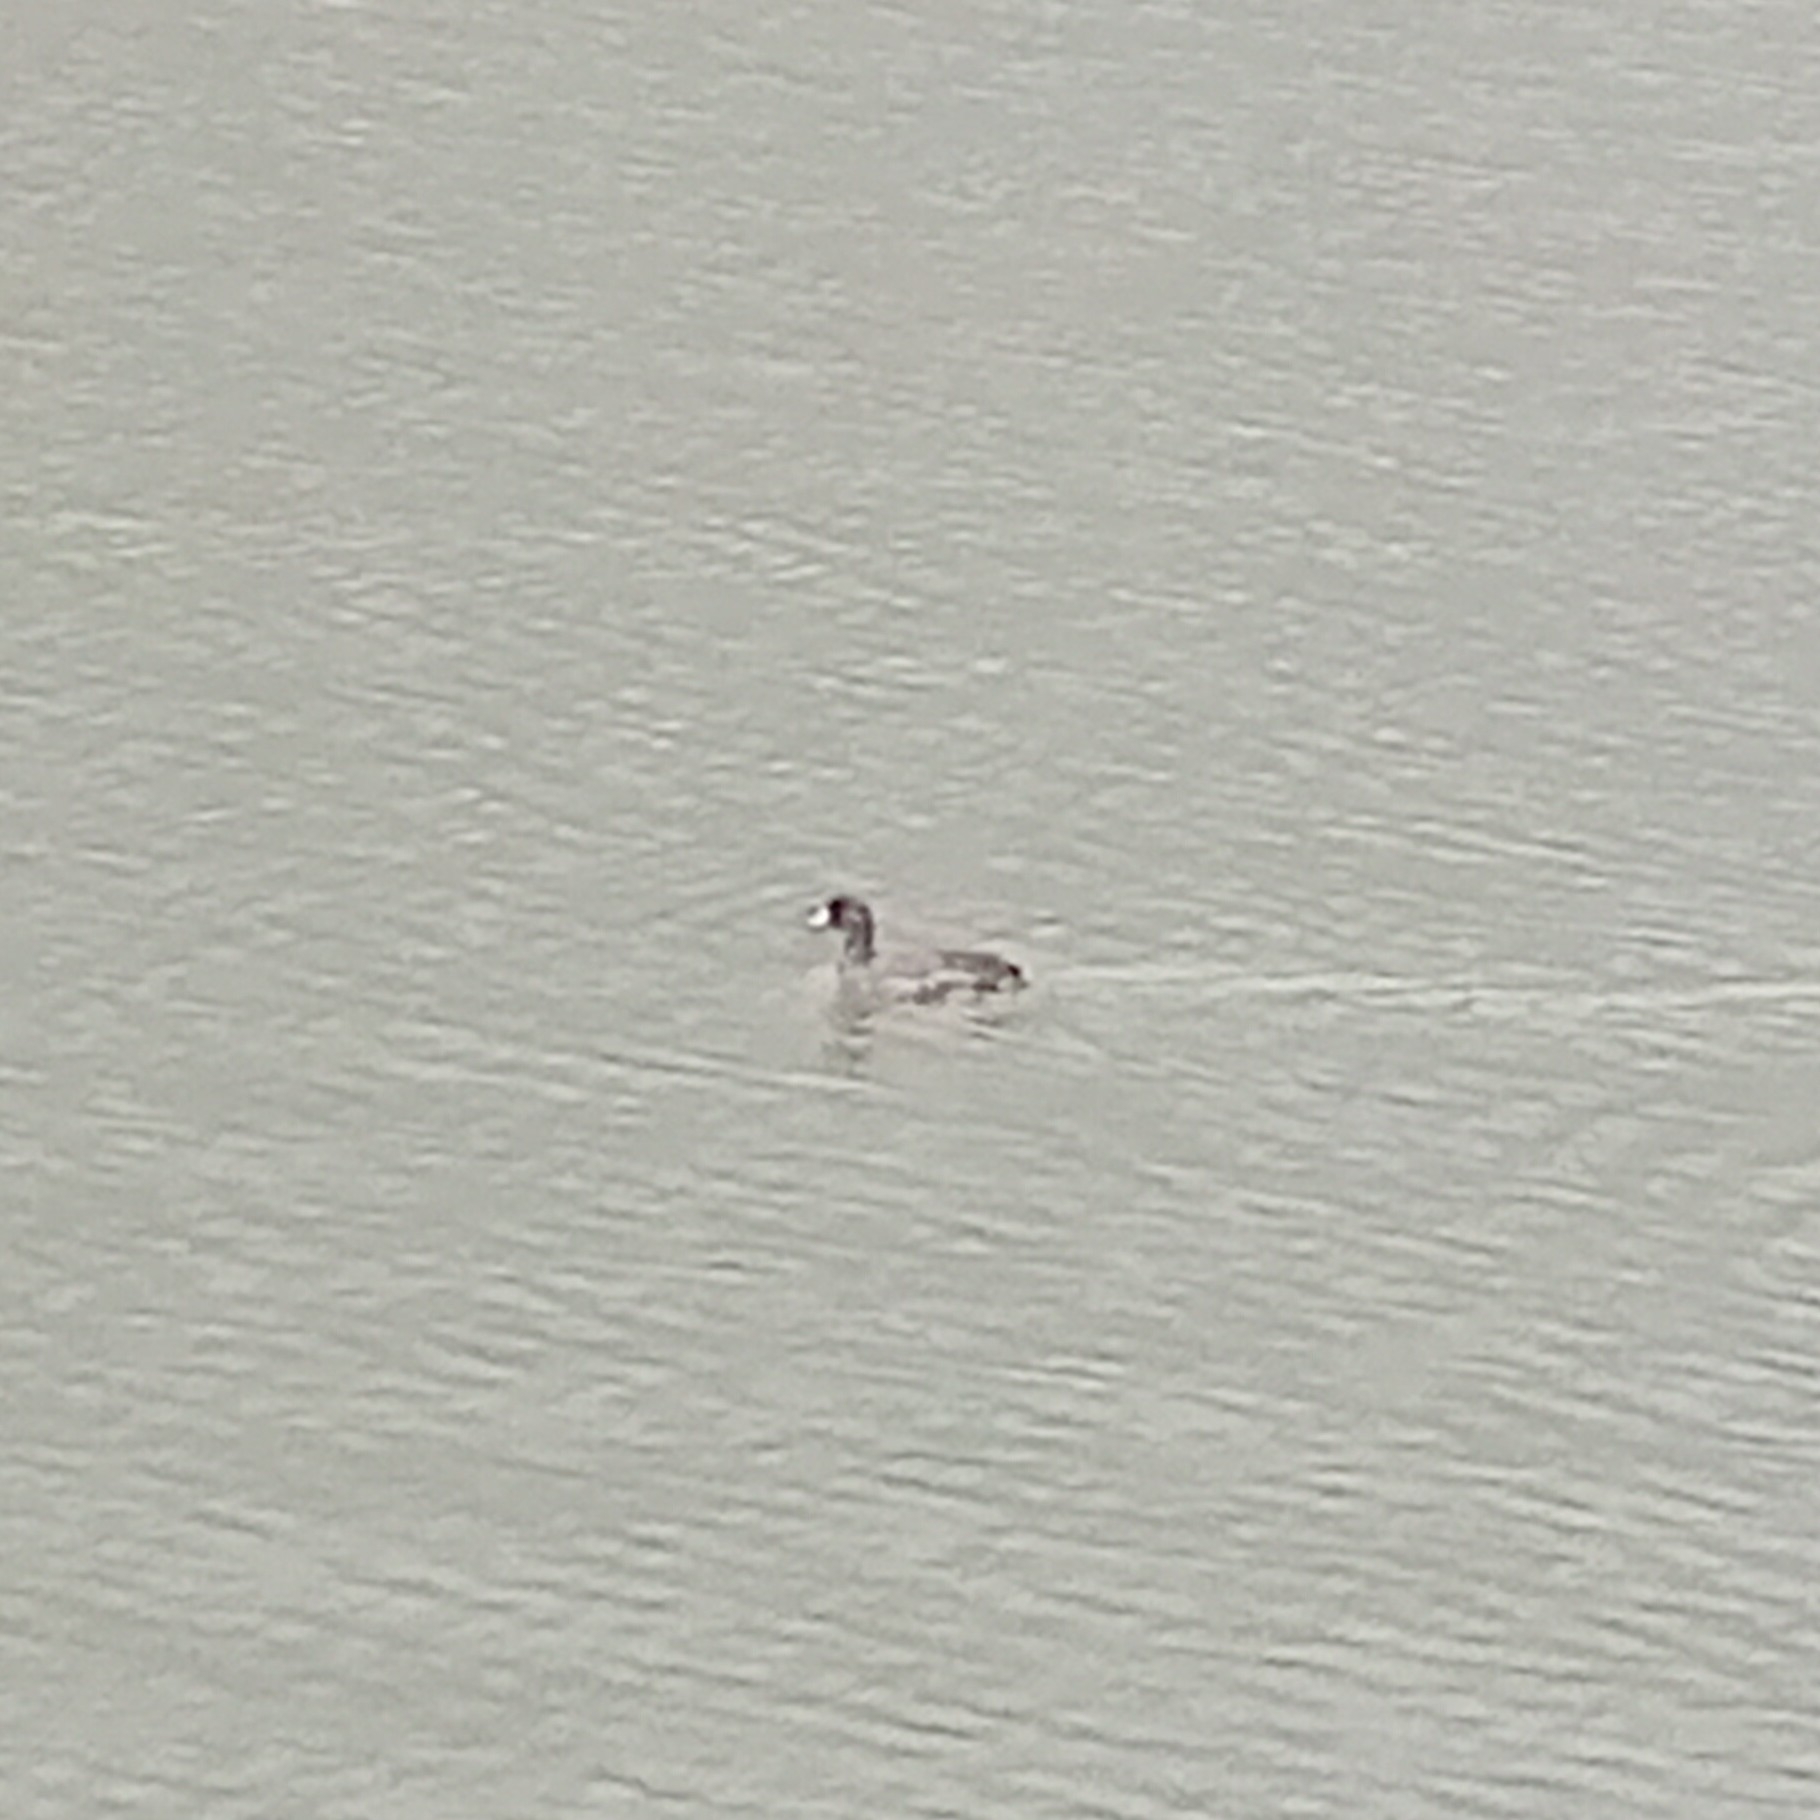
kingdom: Animalia
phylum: Chordata
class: Aves
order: Gruiformes
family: Rallidae
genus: Fulica
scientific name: Fulica americana
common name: American coot
